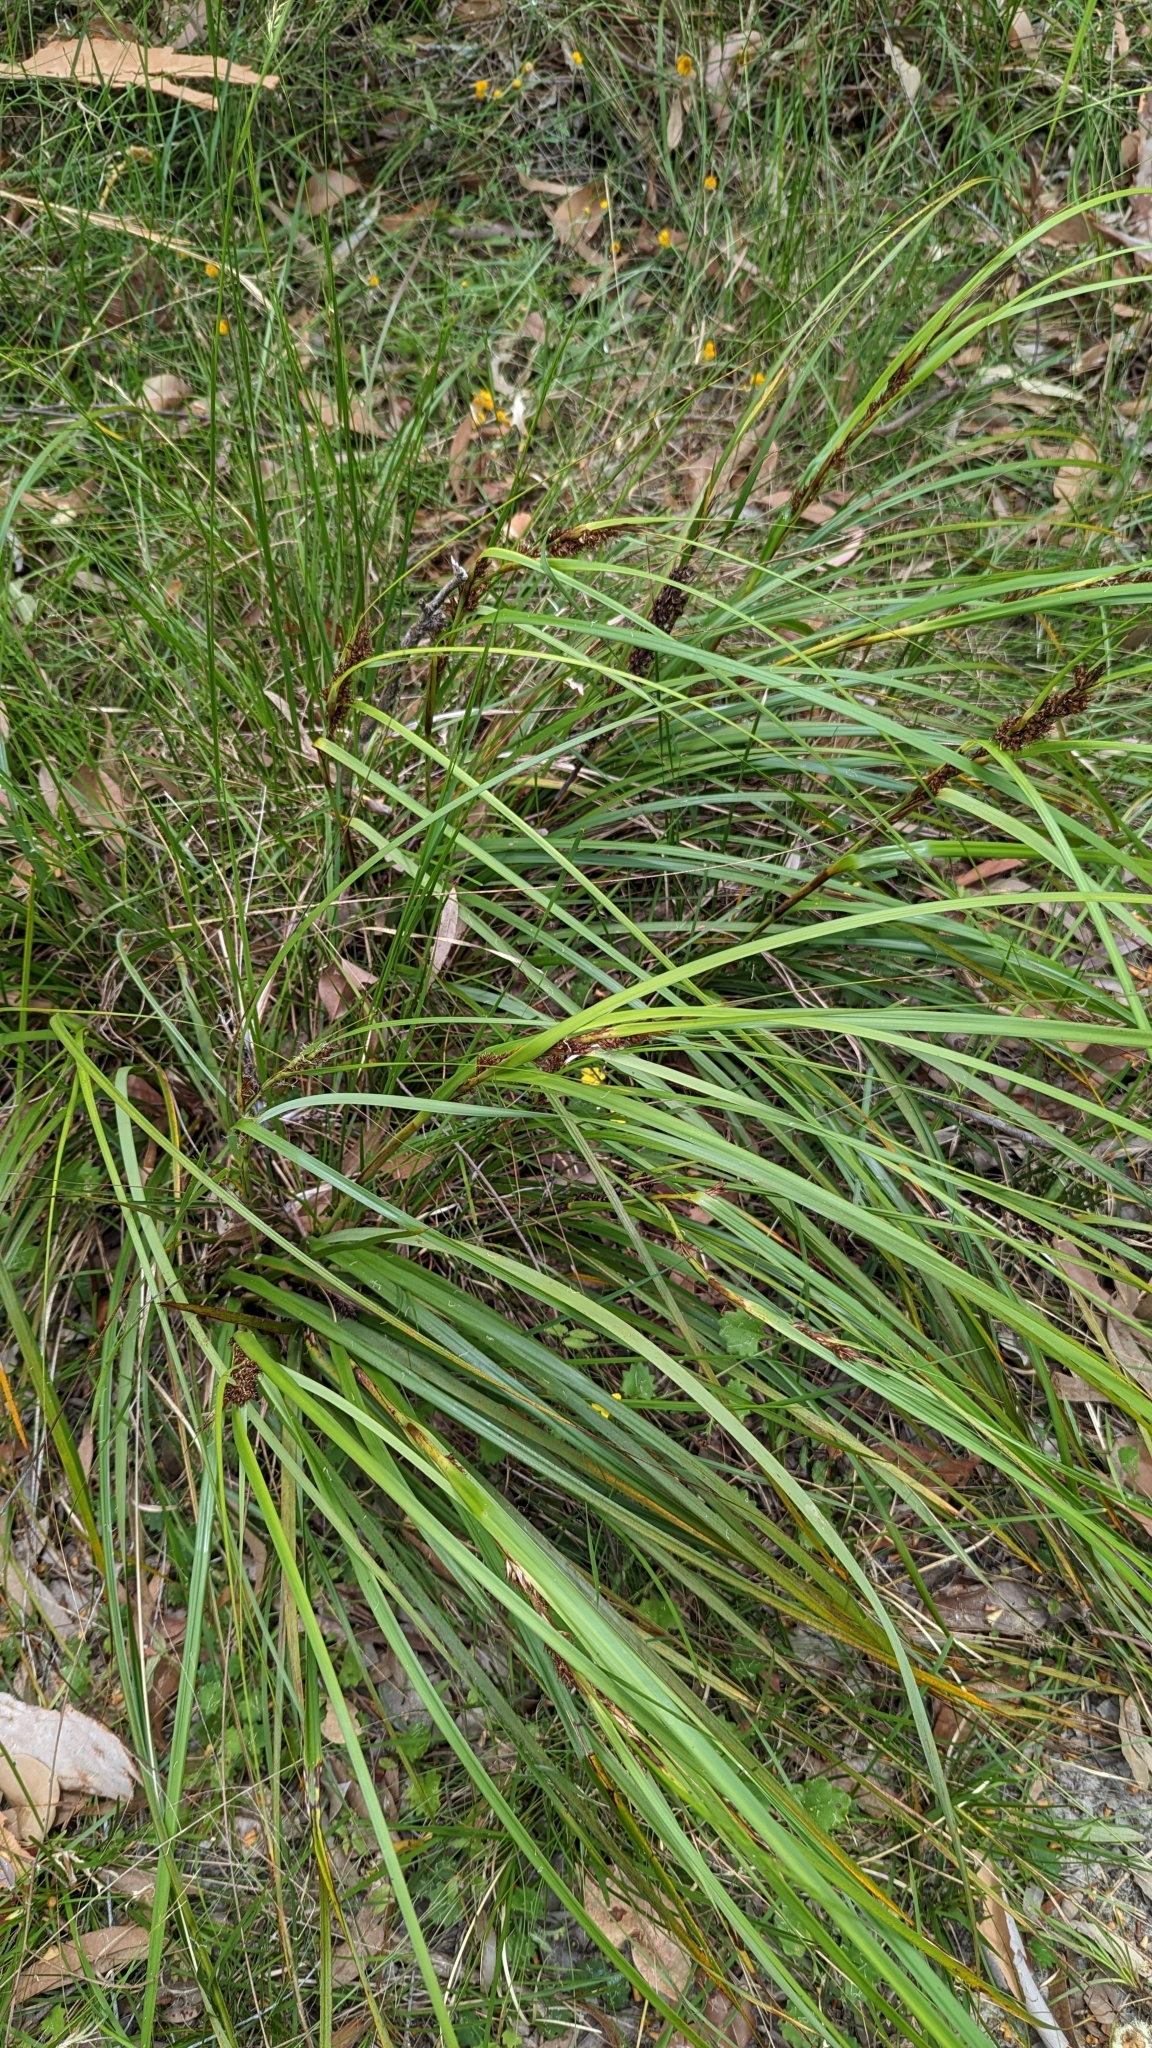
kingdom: Plantae
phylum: Tracheophyta
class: Liliopsida
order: Poales
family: Cyperaceae
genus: Gahnia
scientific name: Gahnia aspera
